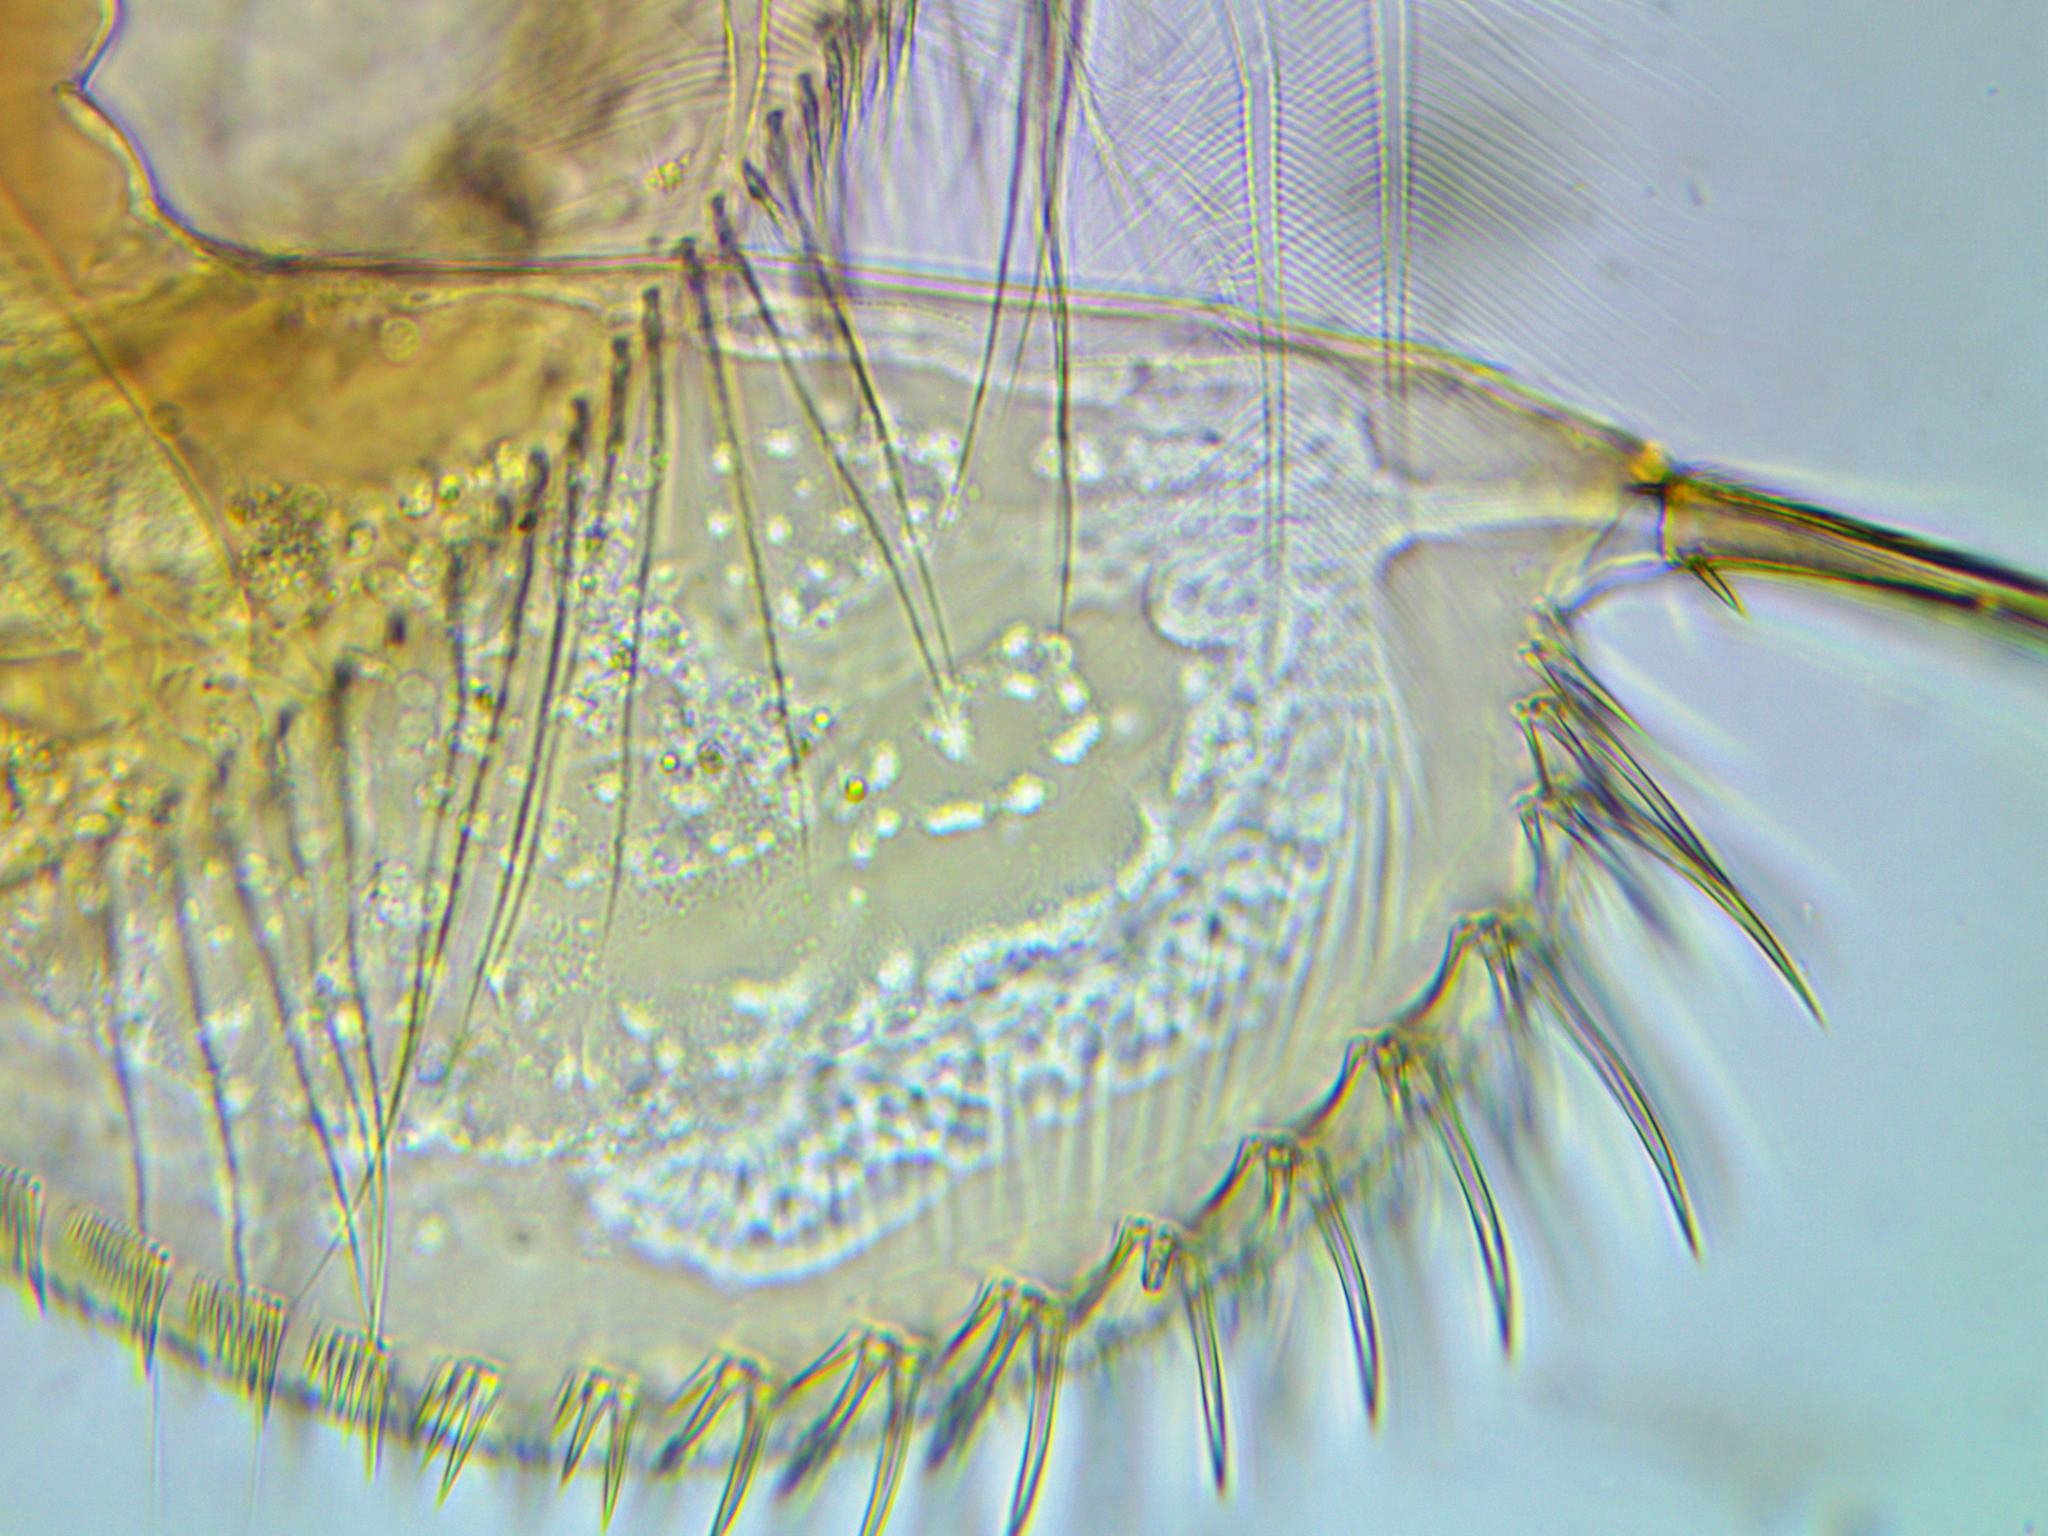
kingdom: Animalia
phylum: Arthropoda
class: Branchiopoda
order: Diplostraca
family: Chydoridae
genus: Leydigia
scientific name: Leydigia leydigi
